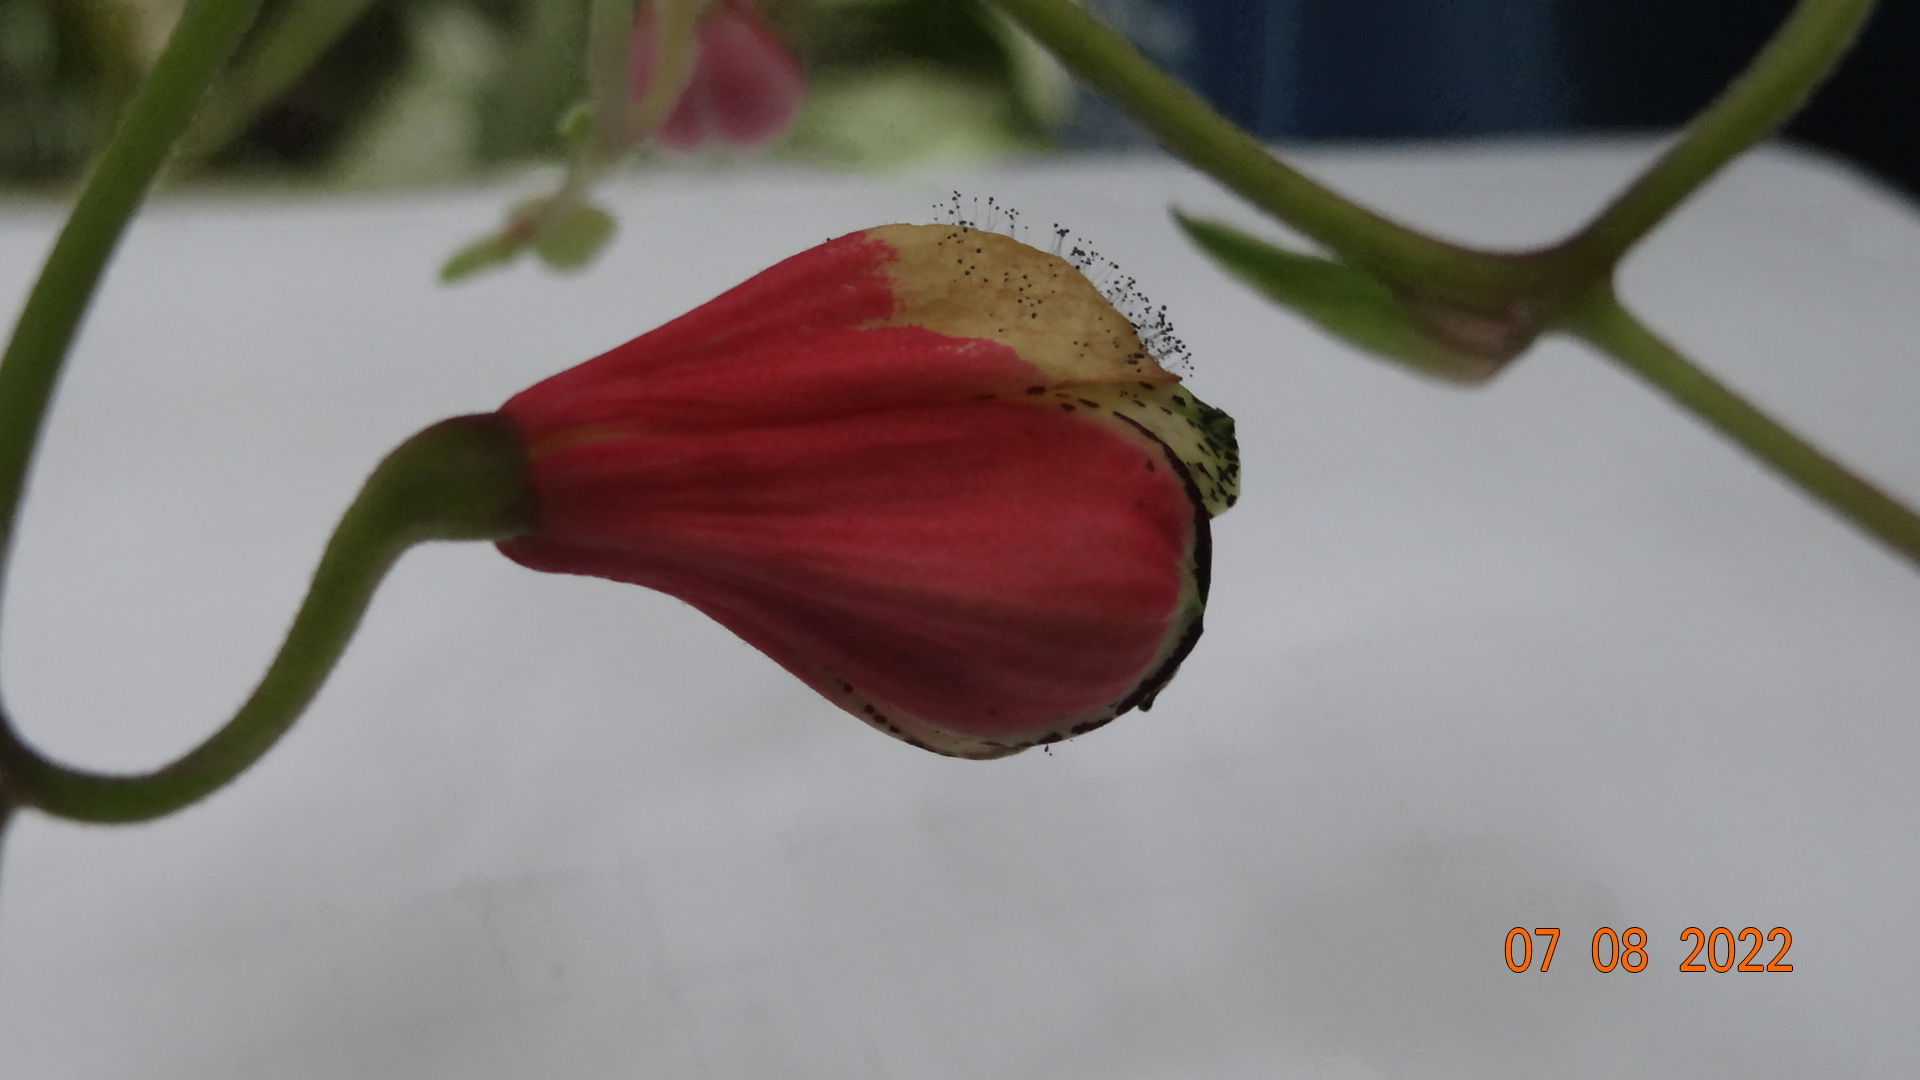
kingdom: Plantae
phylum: Tracheophyta
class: Liliopsida
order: Liliales
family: Alstroemeriaceae
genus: Bomarea
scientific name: Bomarea obovata
